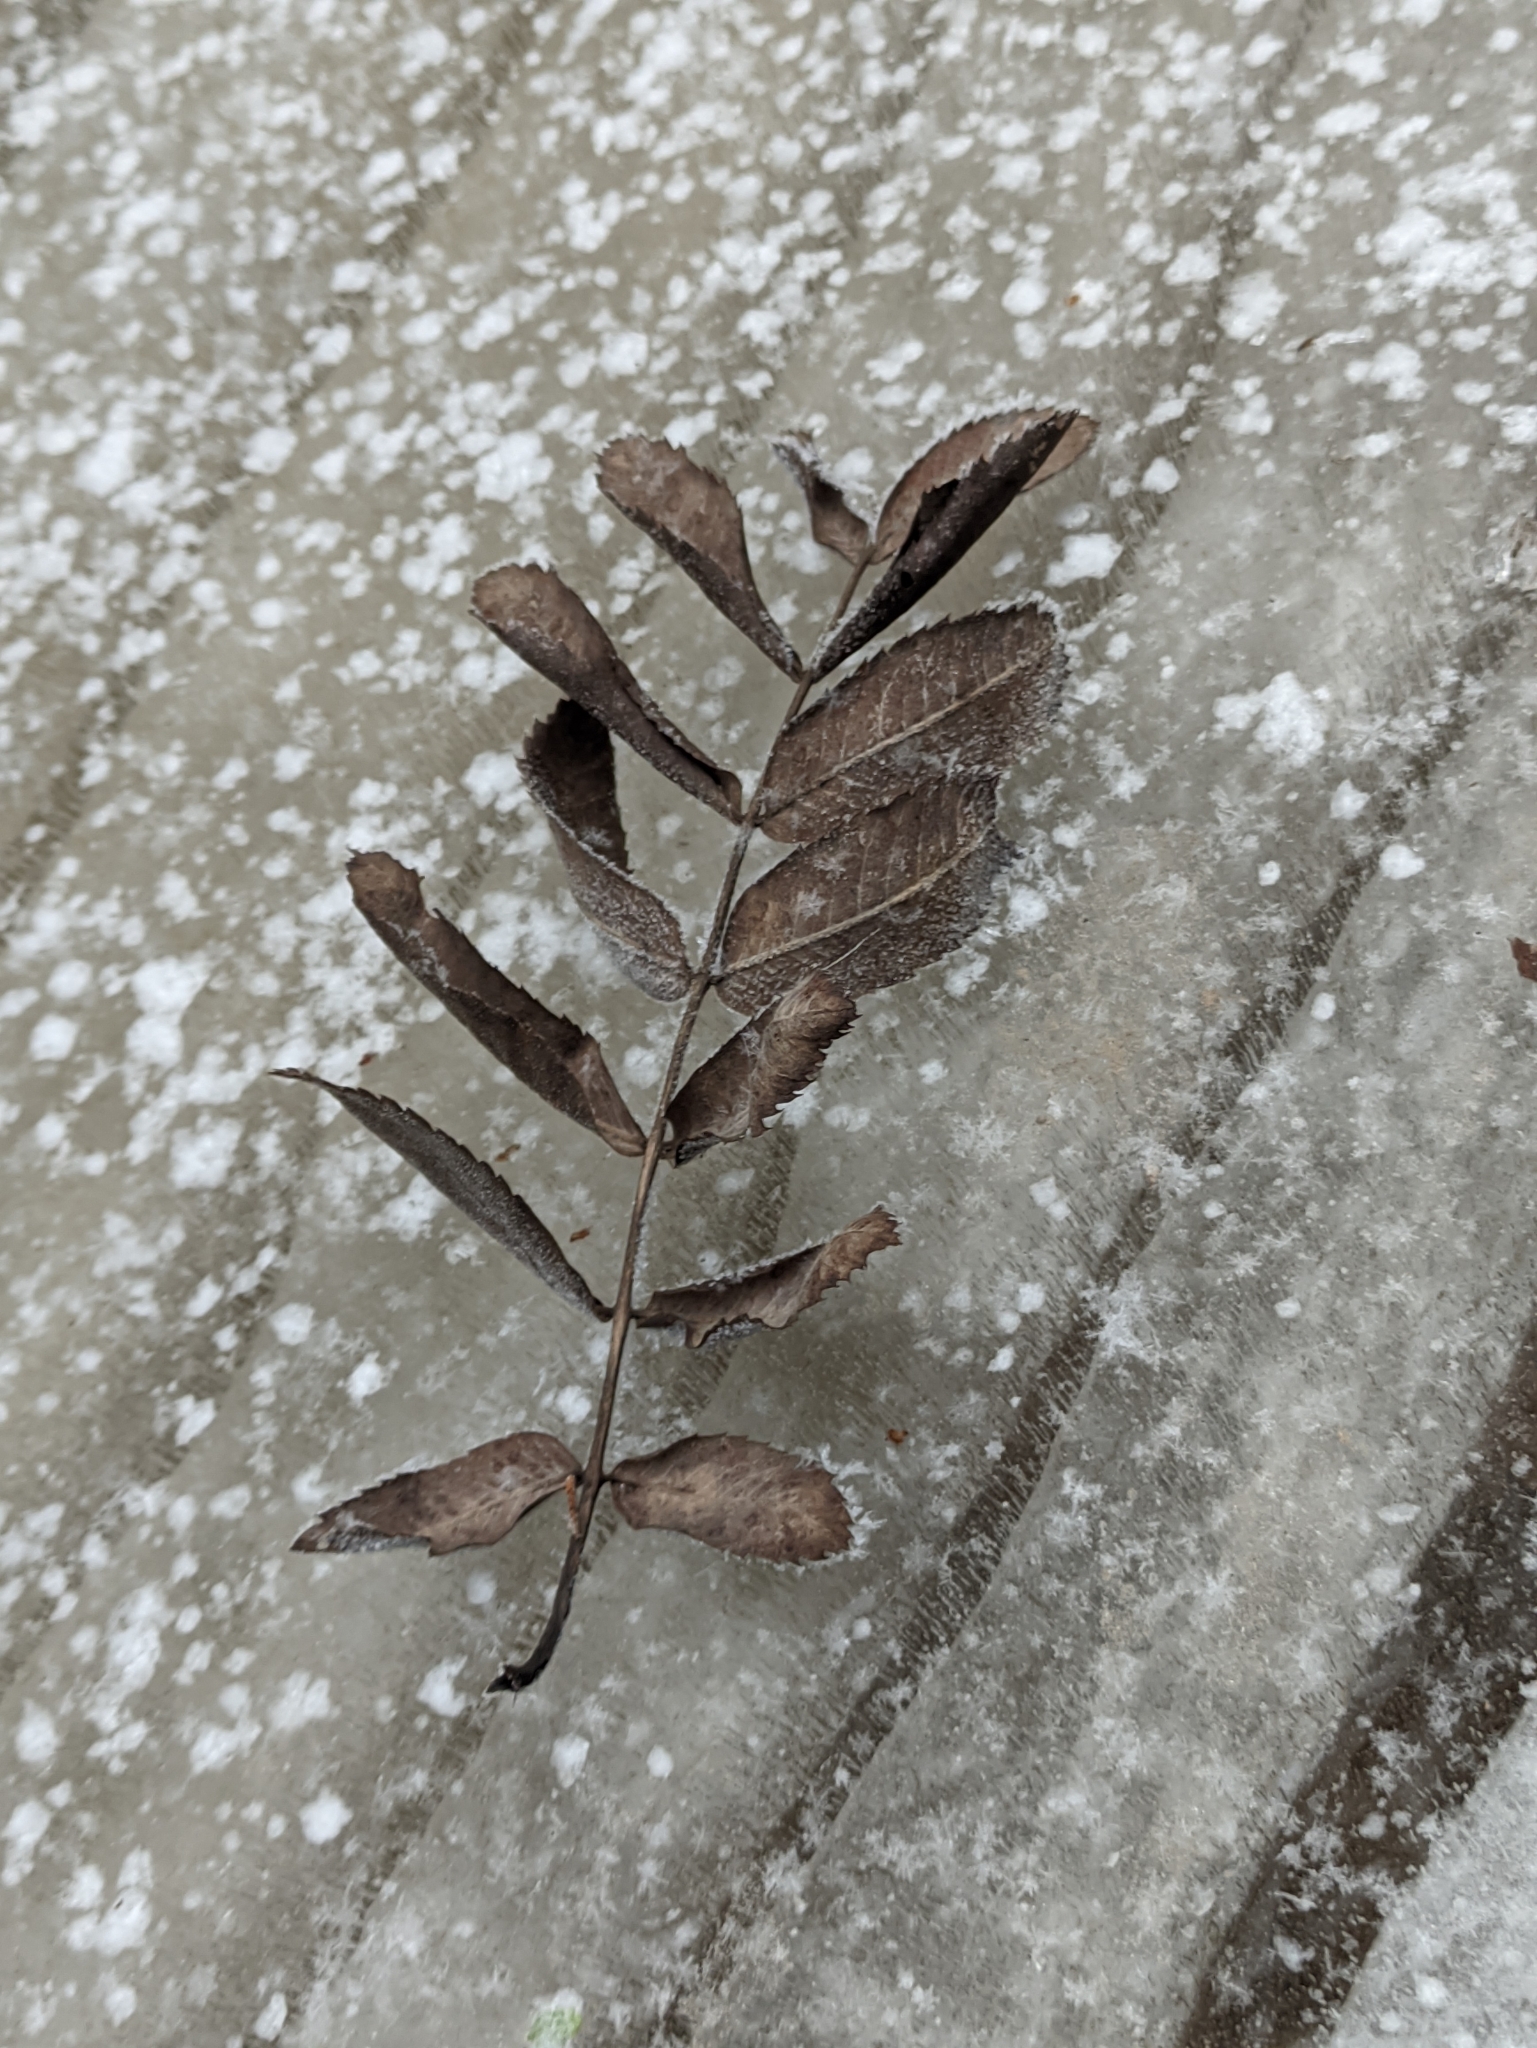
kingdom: Plantae
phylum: Tracheophyta
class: Magnoliopsida
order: Rosales
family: Rosaceae
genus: Sorbus
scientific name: Sorbus aucuparia
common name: Rowan
